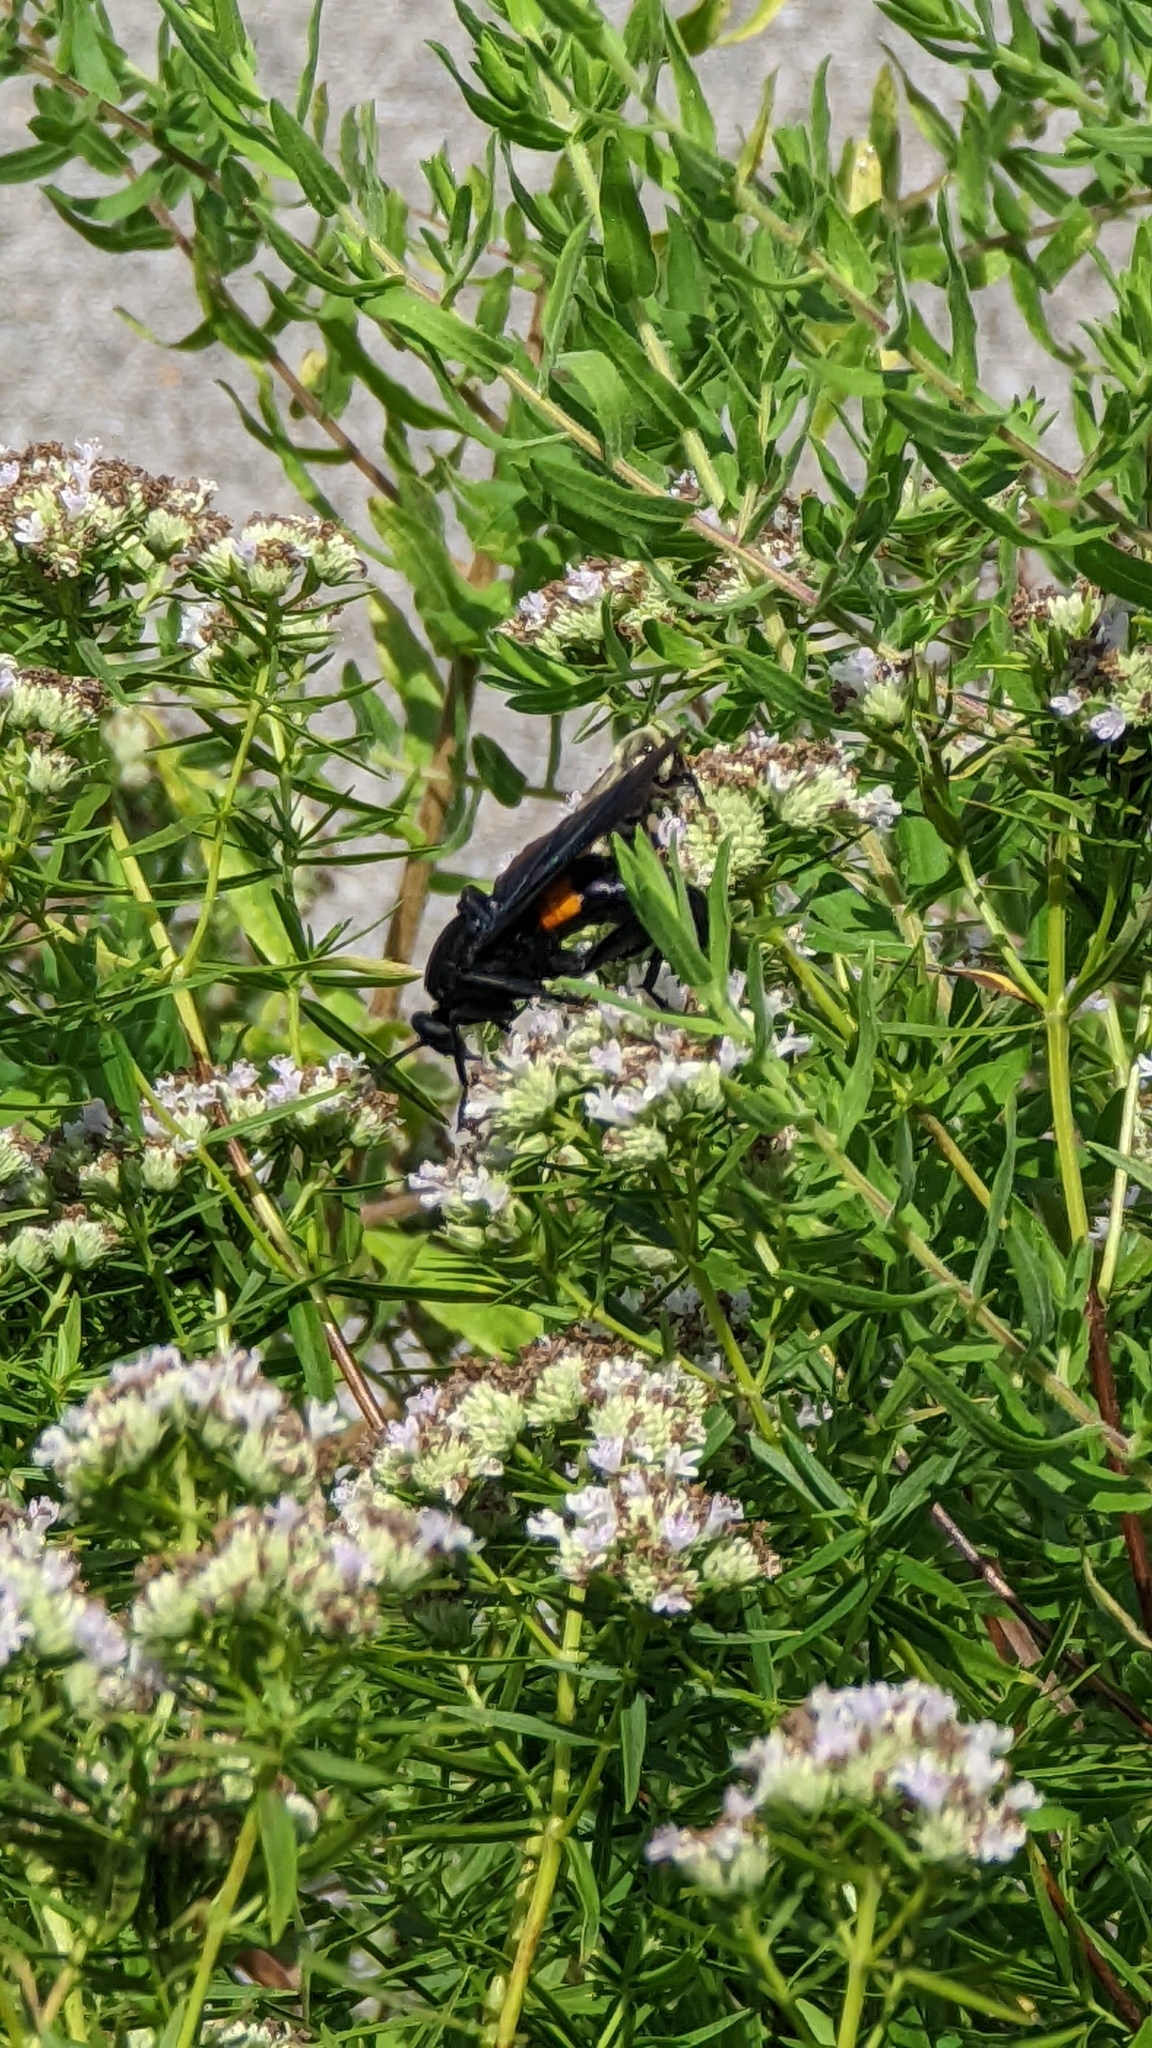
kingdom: Animalia
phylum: Arthropoda
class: Insecta
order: Diptera
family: Mydidae
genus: Mydas
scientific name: Mydas clavatus
